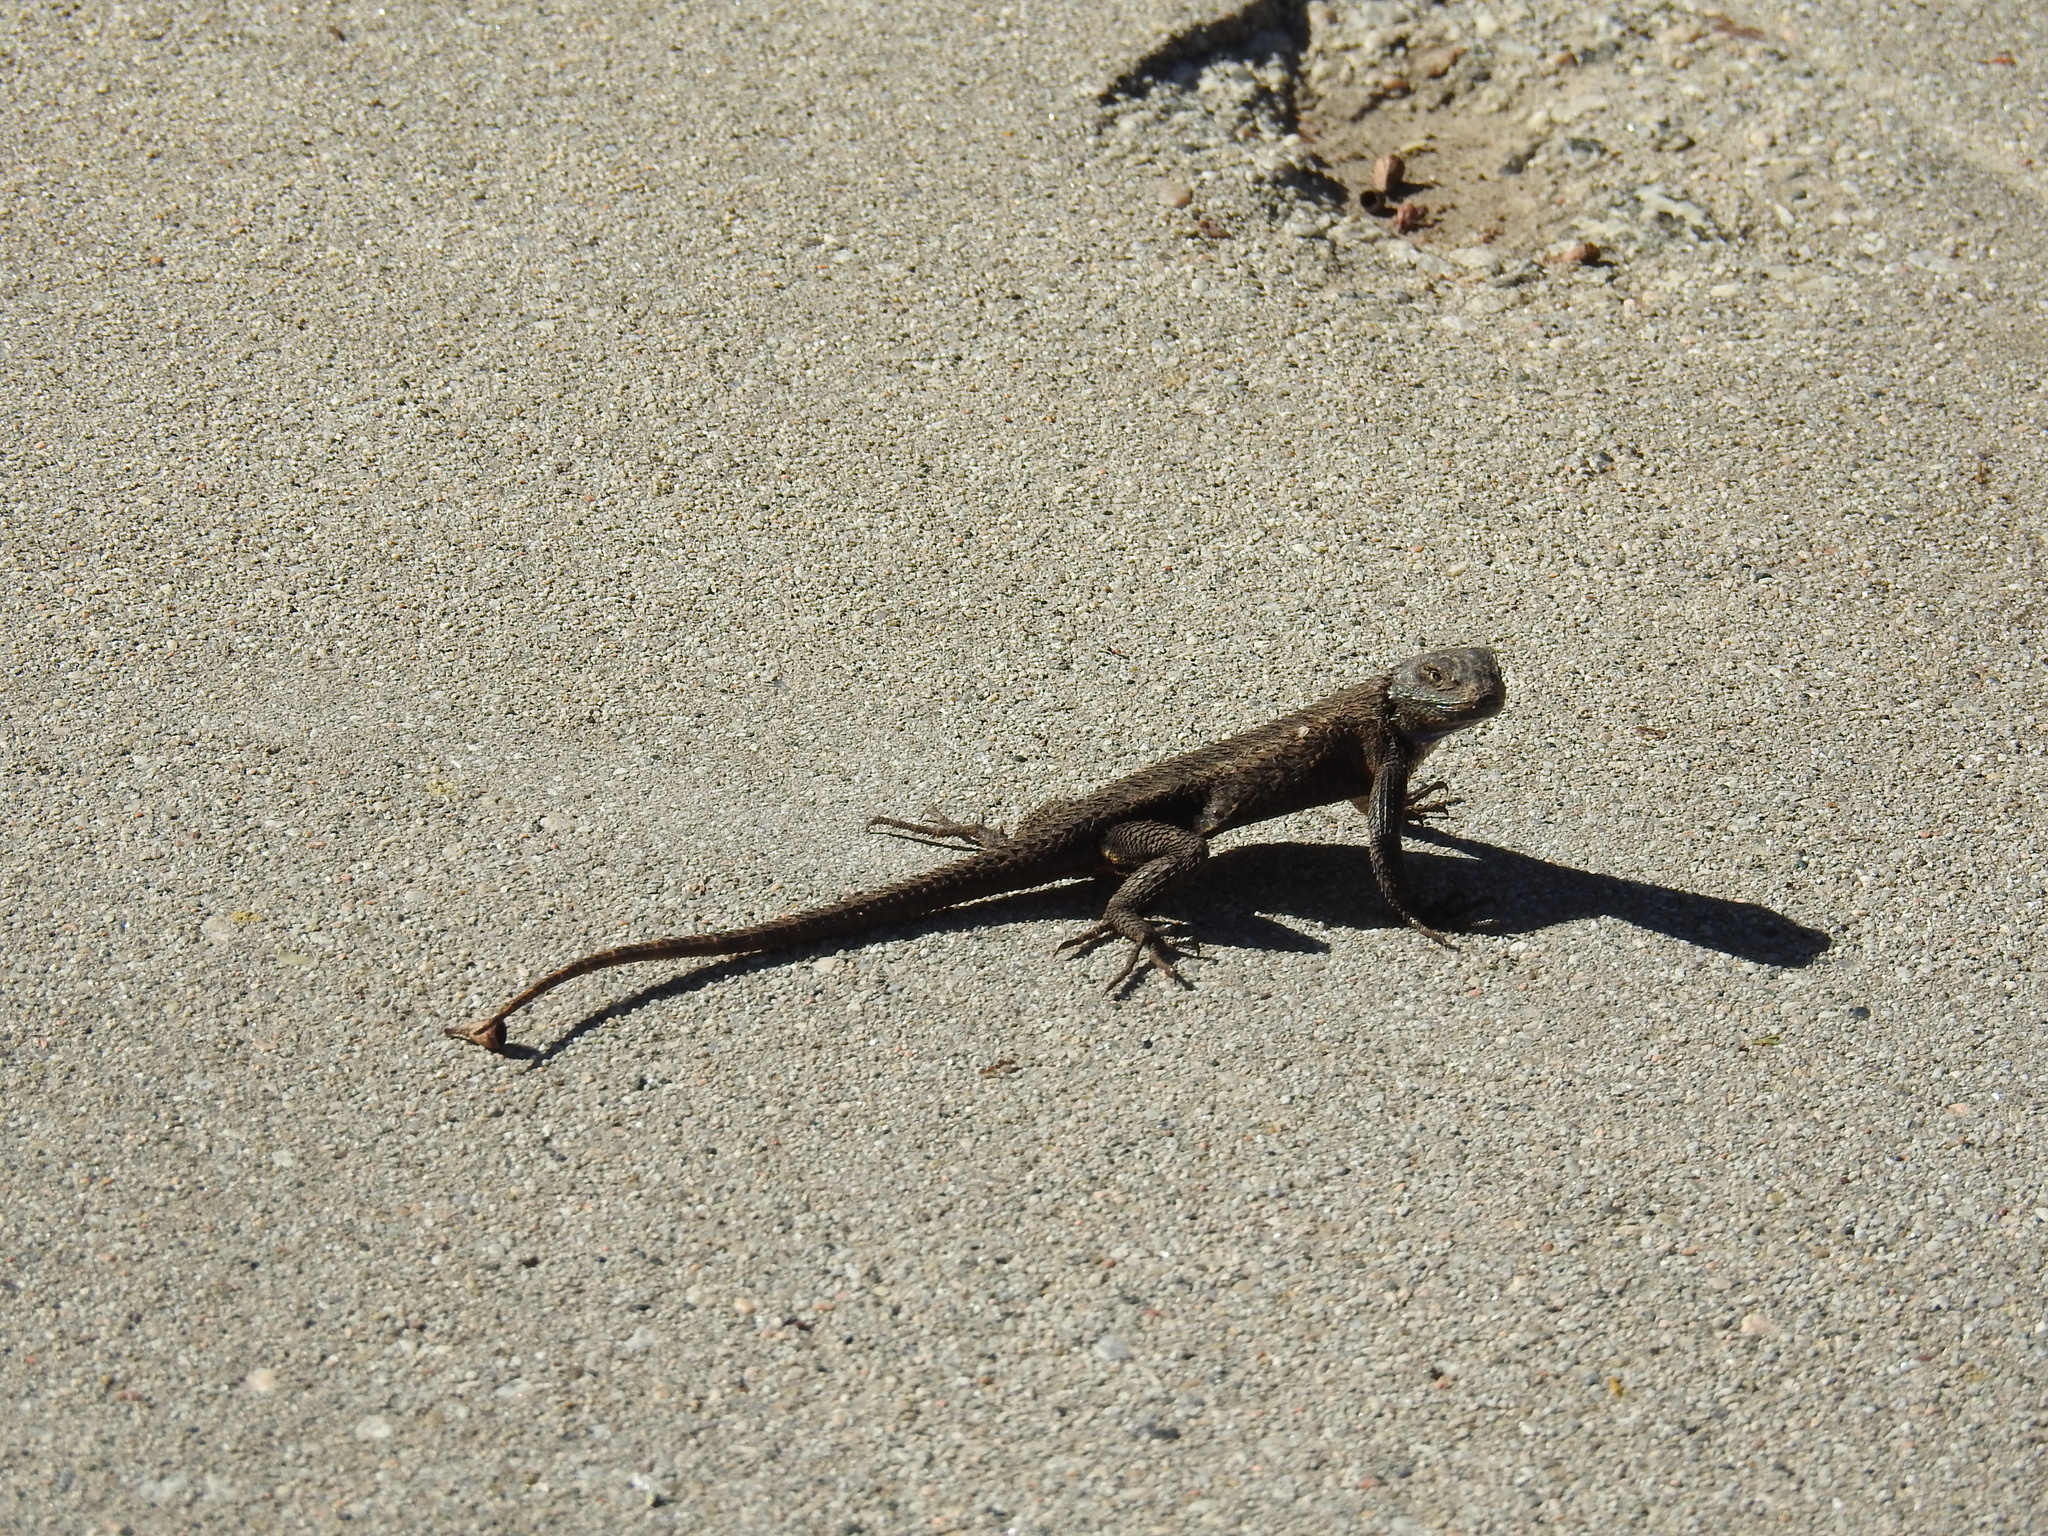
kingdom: Animalia
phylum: Chordata
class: Squamata
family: Phrynosomatidae
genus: Sceloporus
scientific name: Sceloporus occidentalis
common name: Western fence lizard
